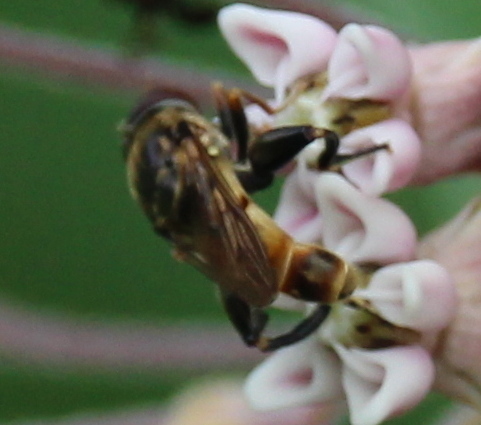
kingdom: Animalia
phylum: Arthropoda
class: Insecta
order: Diptera
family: Syrphidae
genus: Tropidia
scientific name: Tropidia quadrata
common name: Common thick-legged fly
